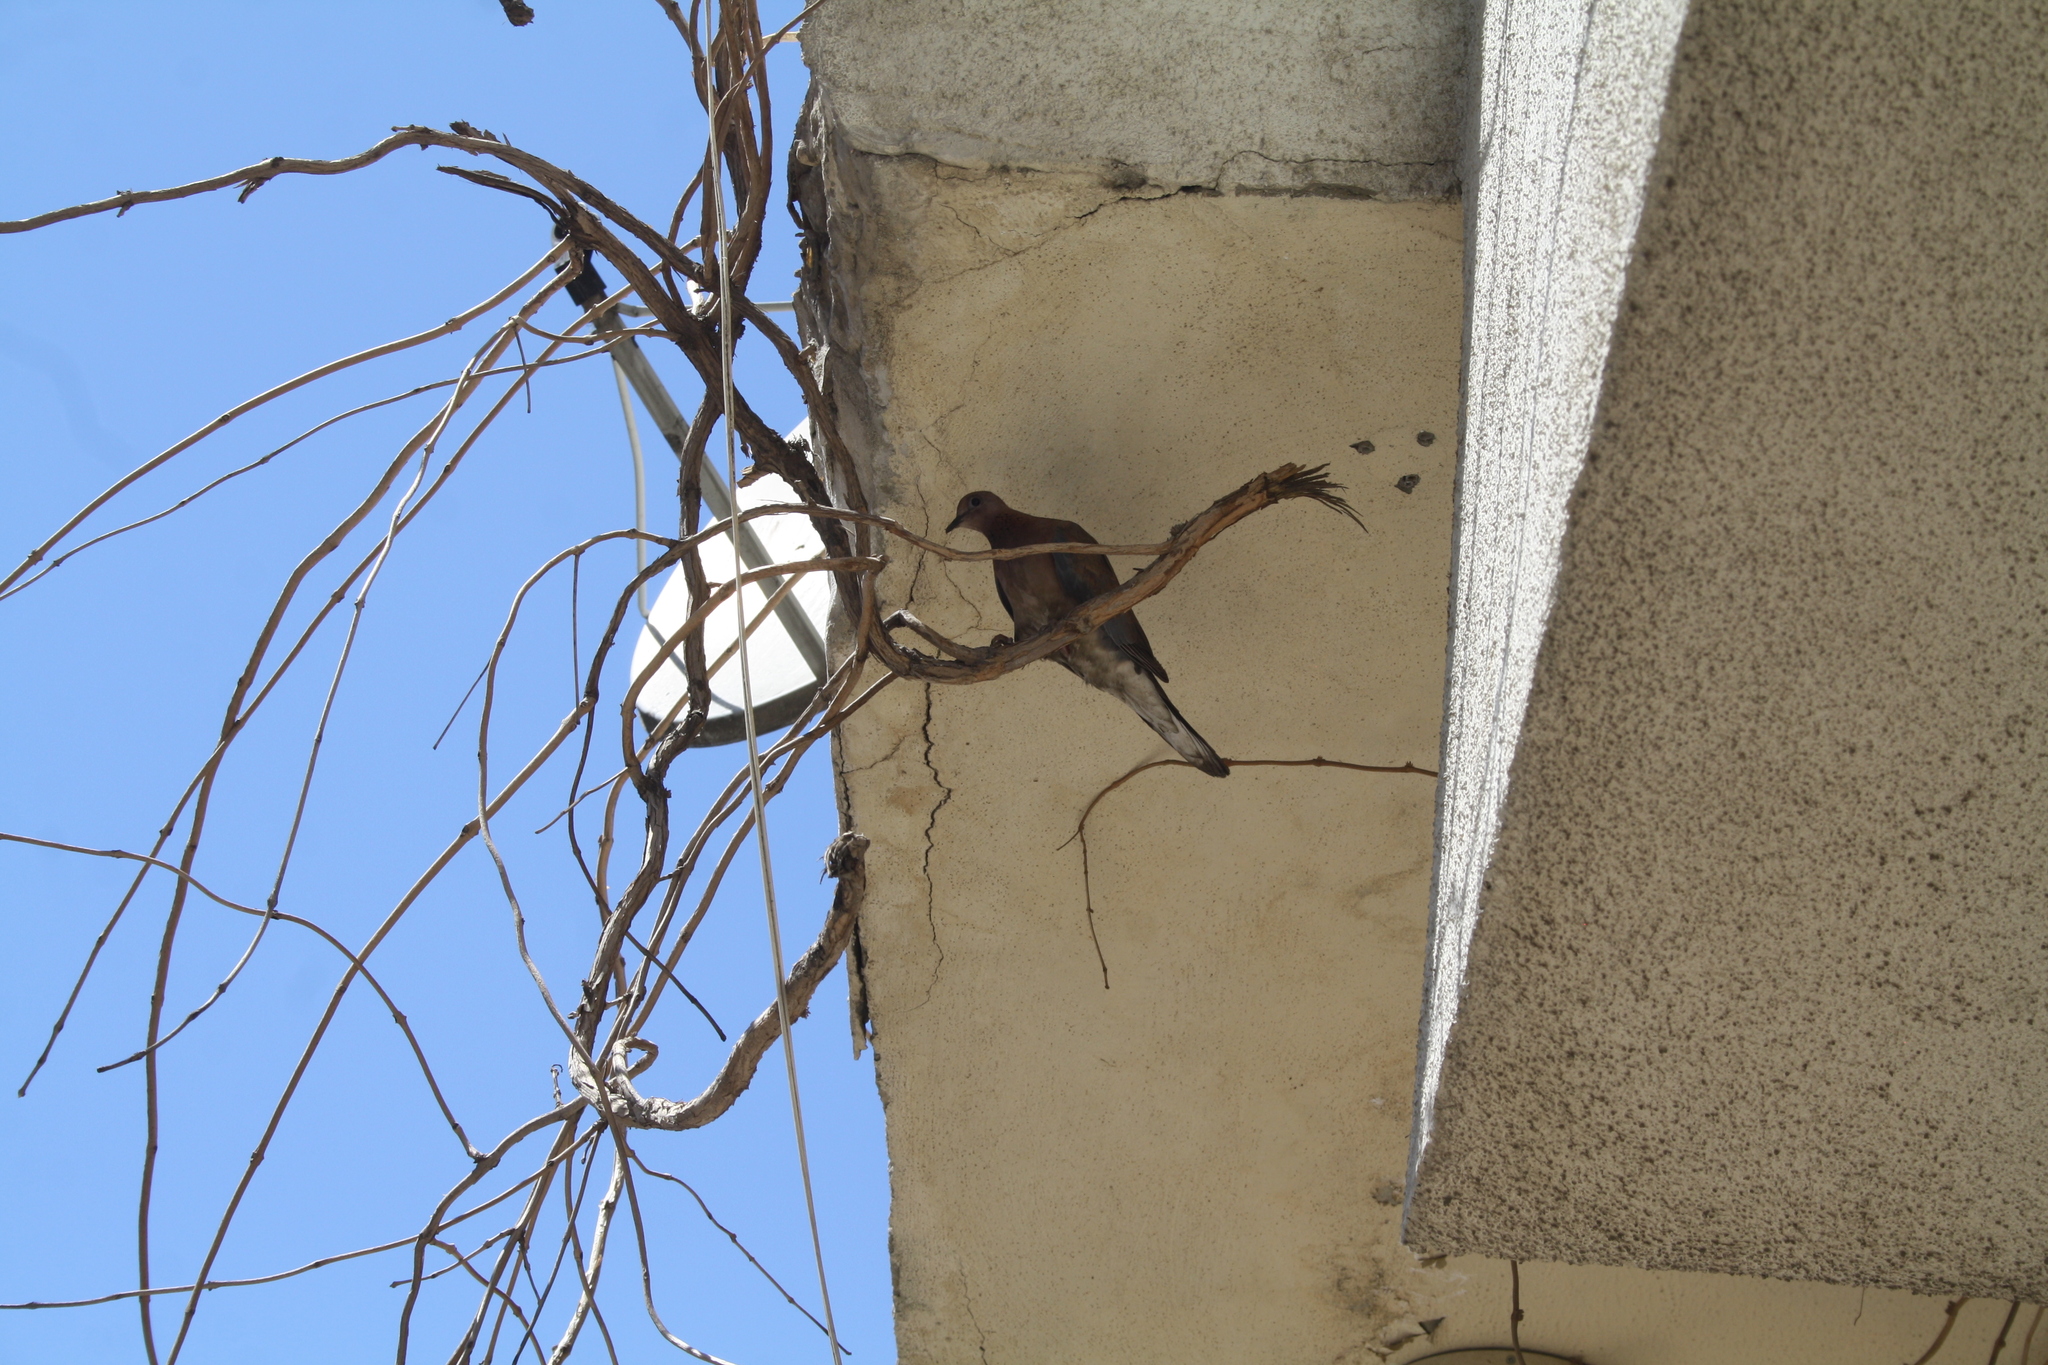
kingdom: Animalia
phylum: Chordata
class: Aves
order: Columbiformes
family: Columbidae
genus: Spilopelia
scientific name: Spilopelia senegalensis
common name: Laughing dove
